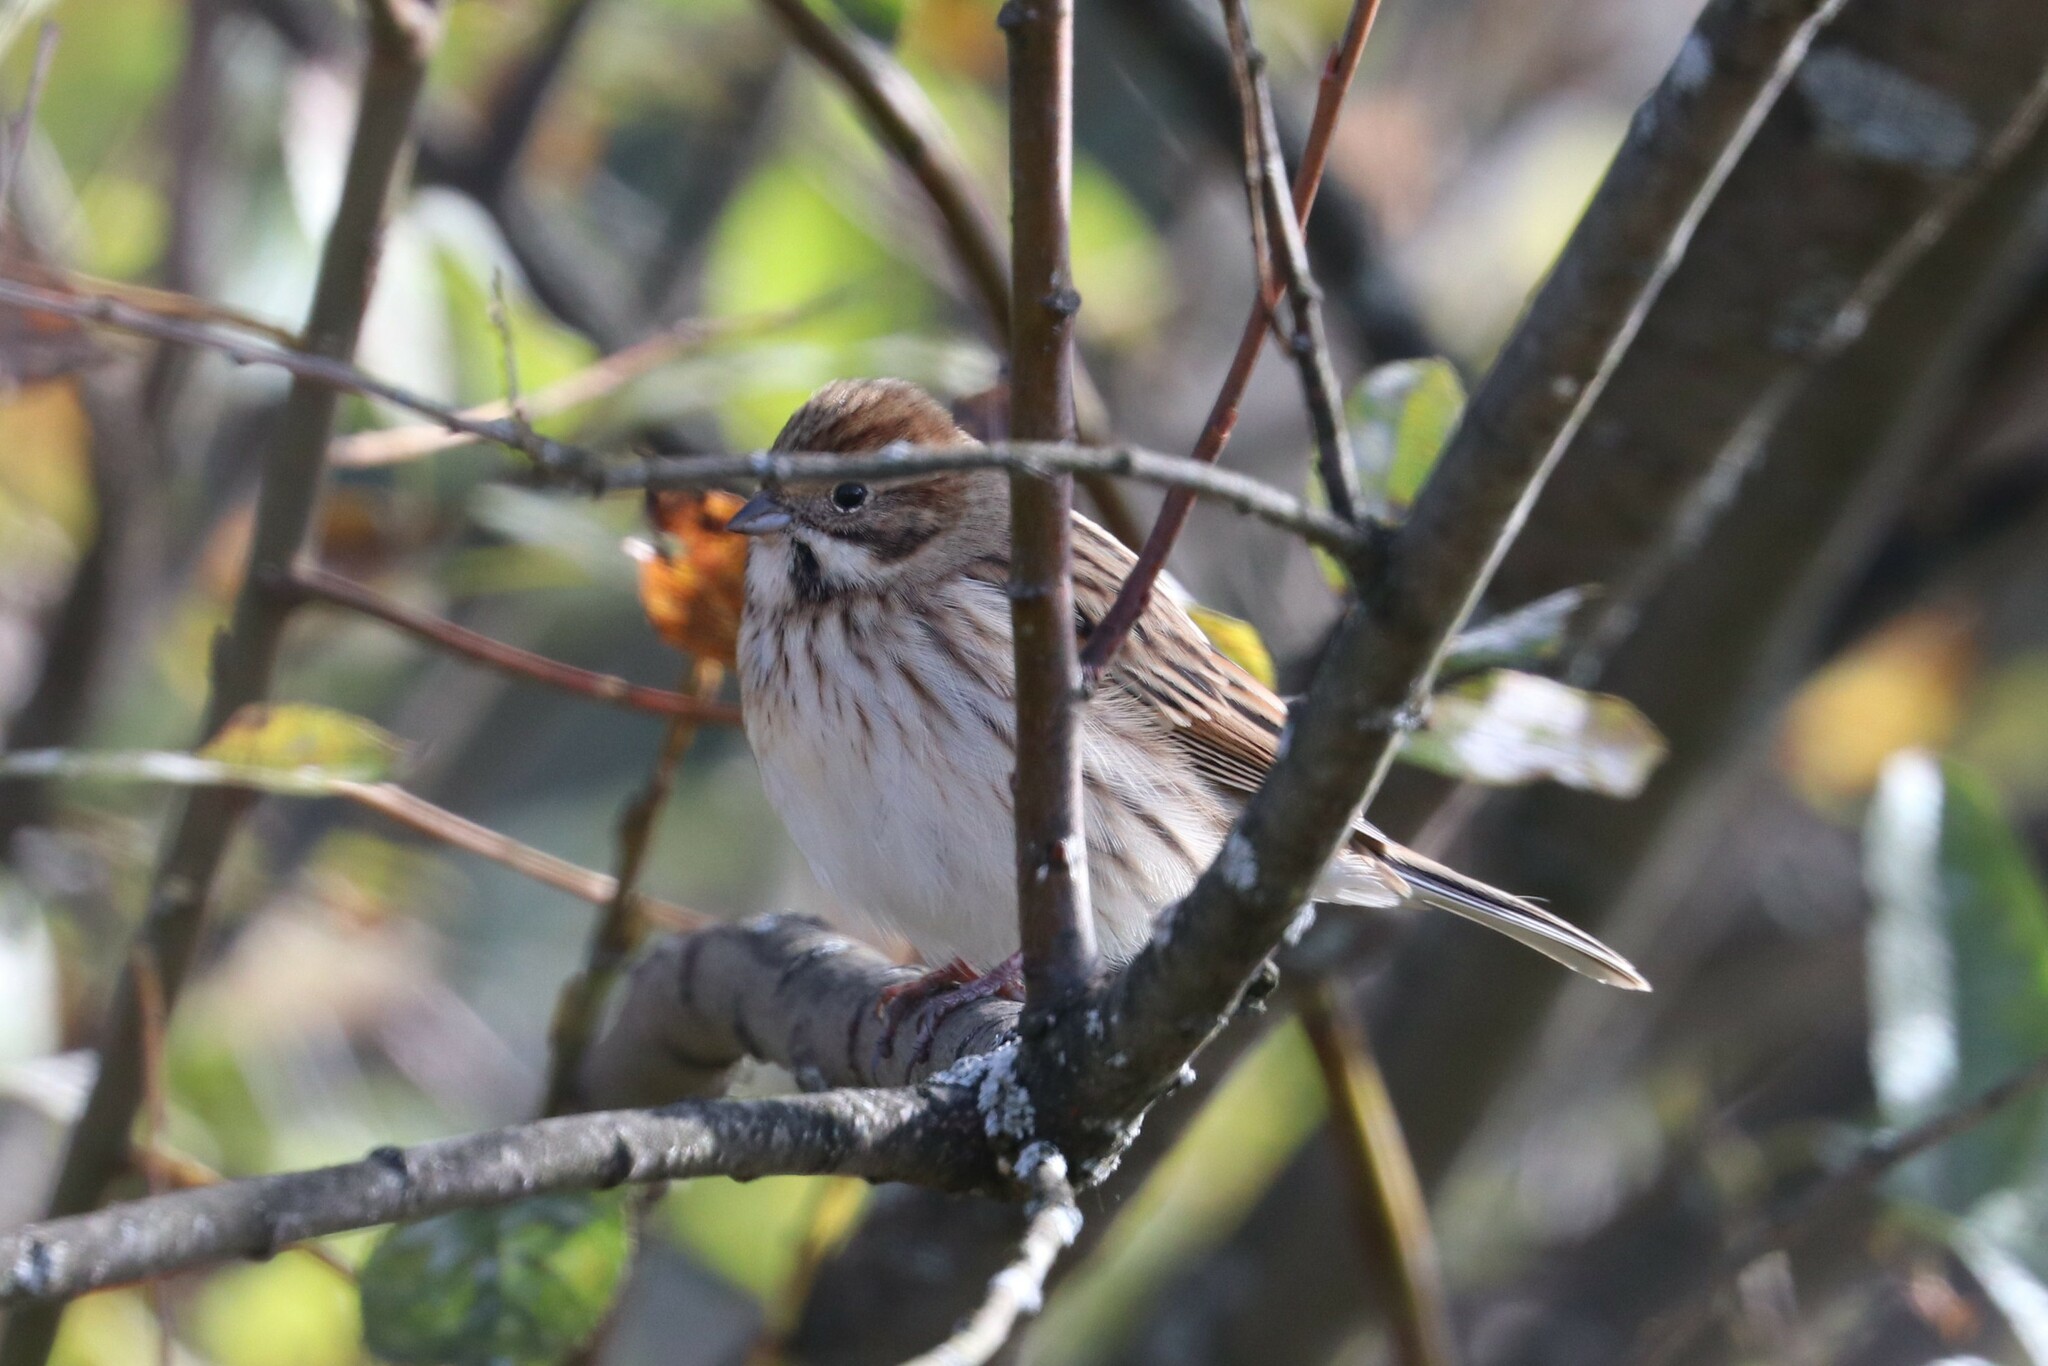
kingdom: Animalia
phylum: Chordata
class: Aves
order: Passeriformes
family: Emberizidae
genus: Emberiza
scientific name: Emberiza schoeniclus
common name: Reed bunting
